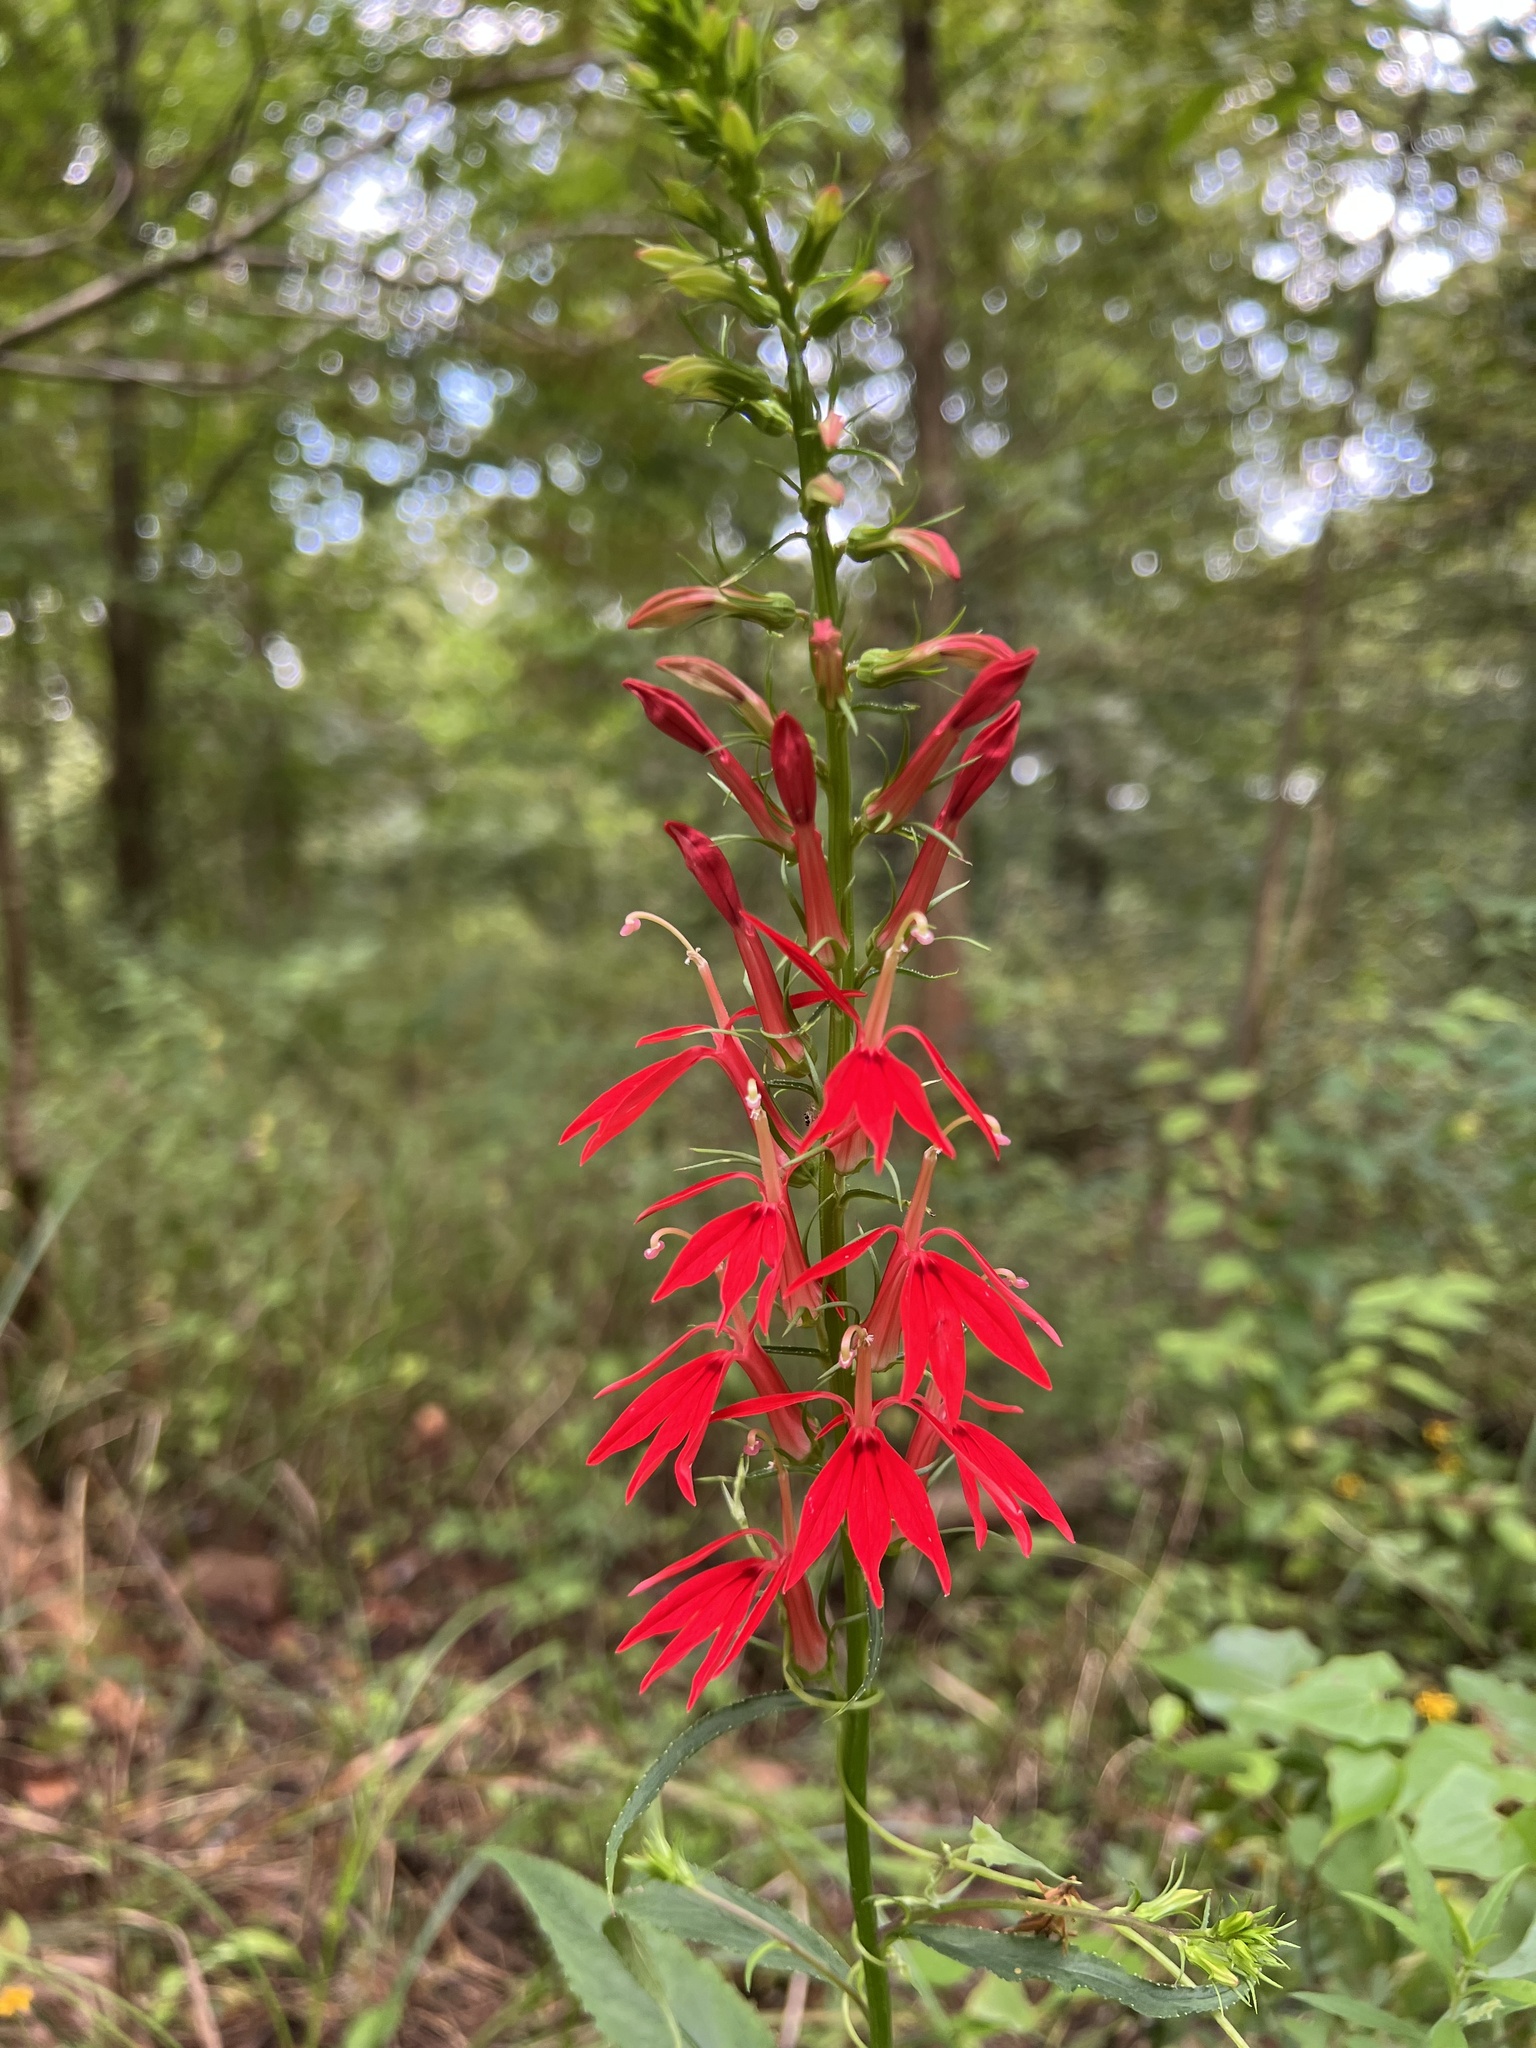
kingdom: Plantae
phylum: Tracheophyta
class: Magnoliopsida
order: Asterales
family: Campanulaceae
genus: Lobelia
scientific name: Lobelia cardinalis
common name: Cardinal flower
